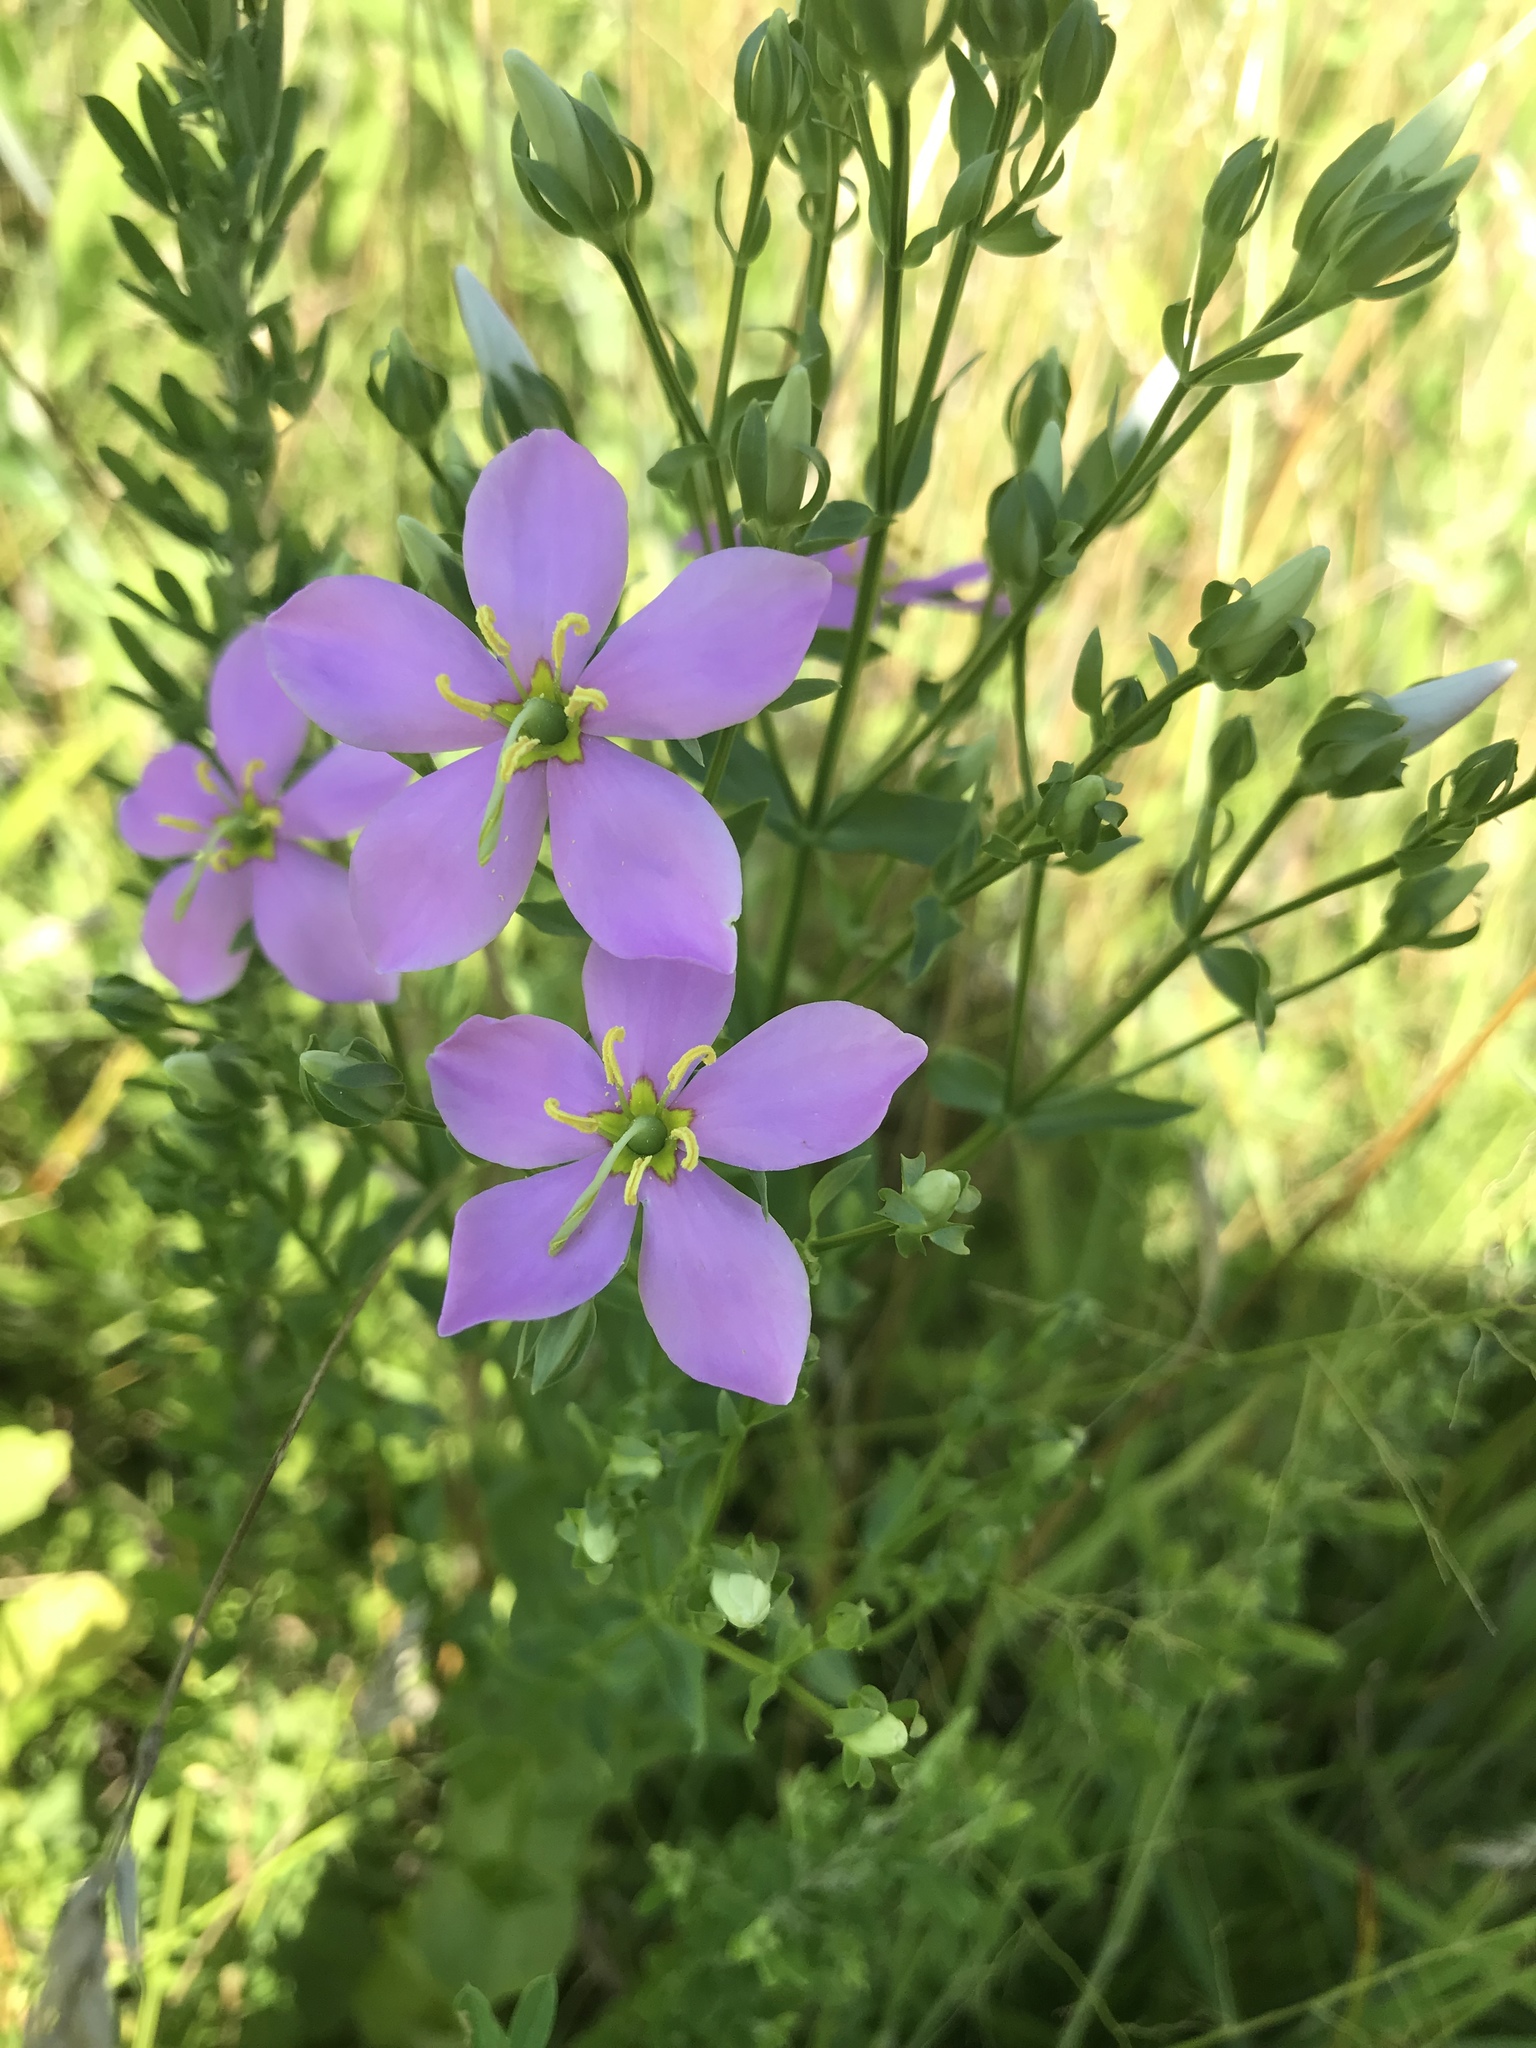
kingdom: Plantae
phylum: Tracheophyta
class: Magnoliopsida
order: Gentianales
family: Gentianaceae
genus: Sabatia
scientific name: Sabatia angularis
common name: Rose-pink
